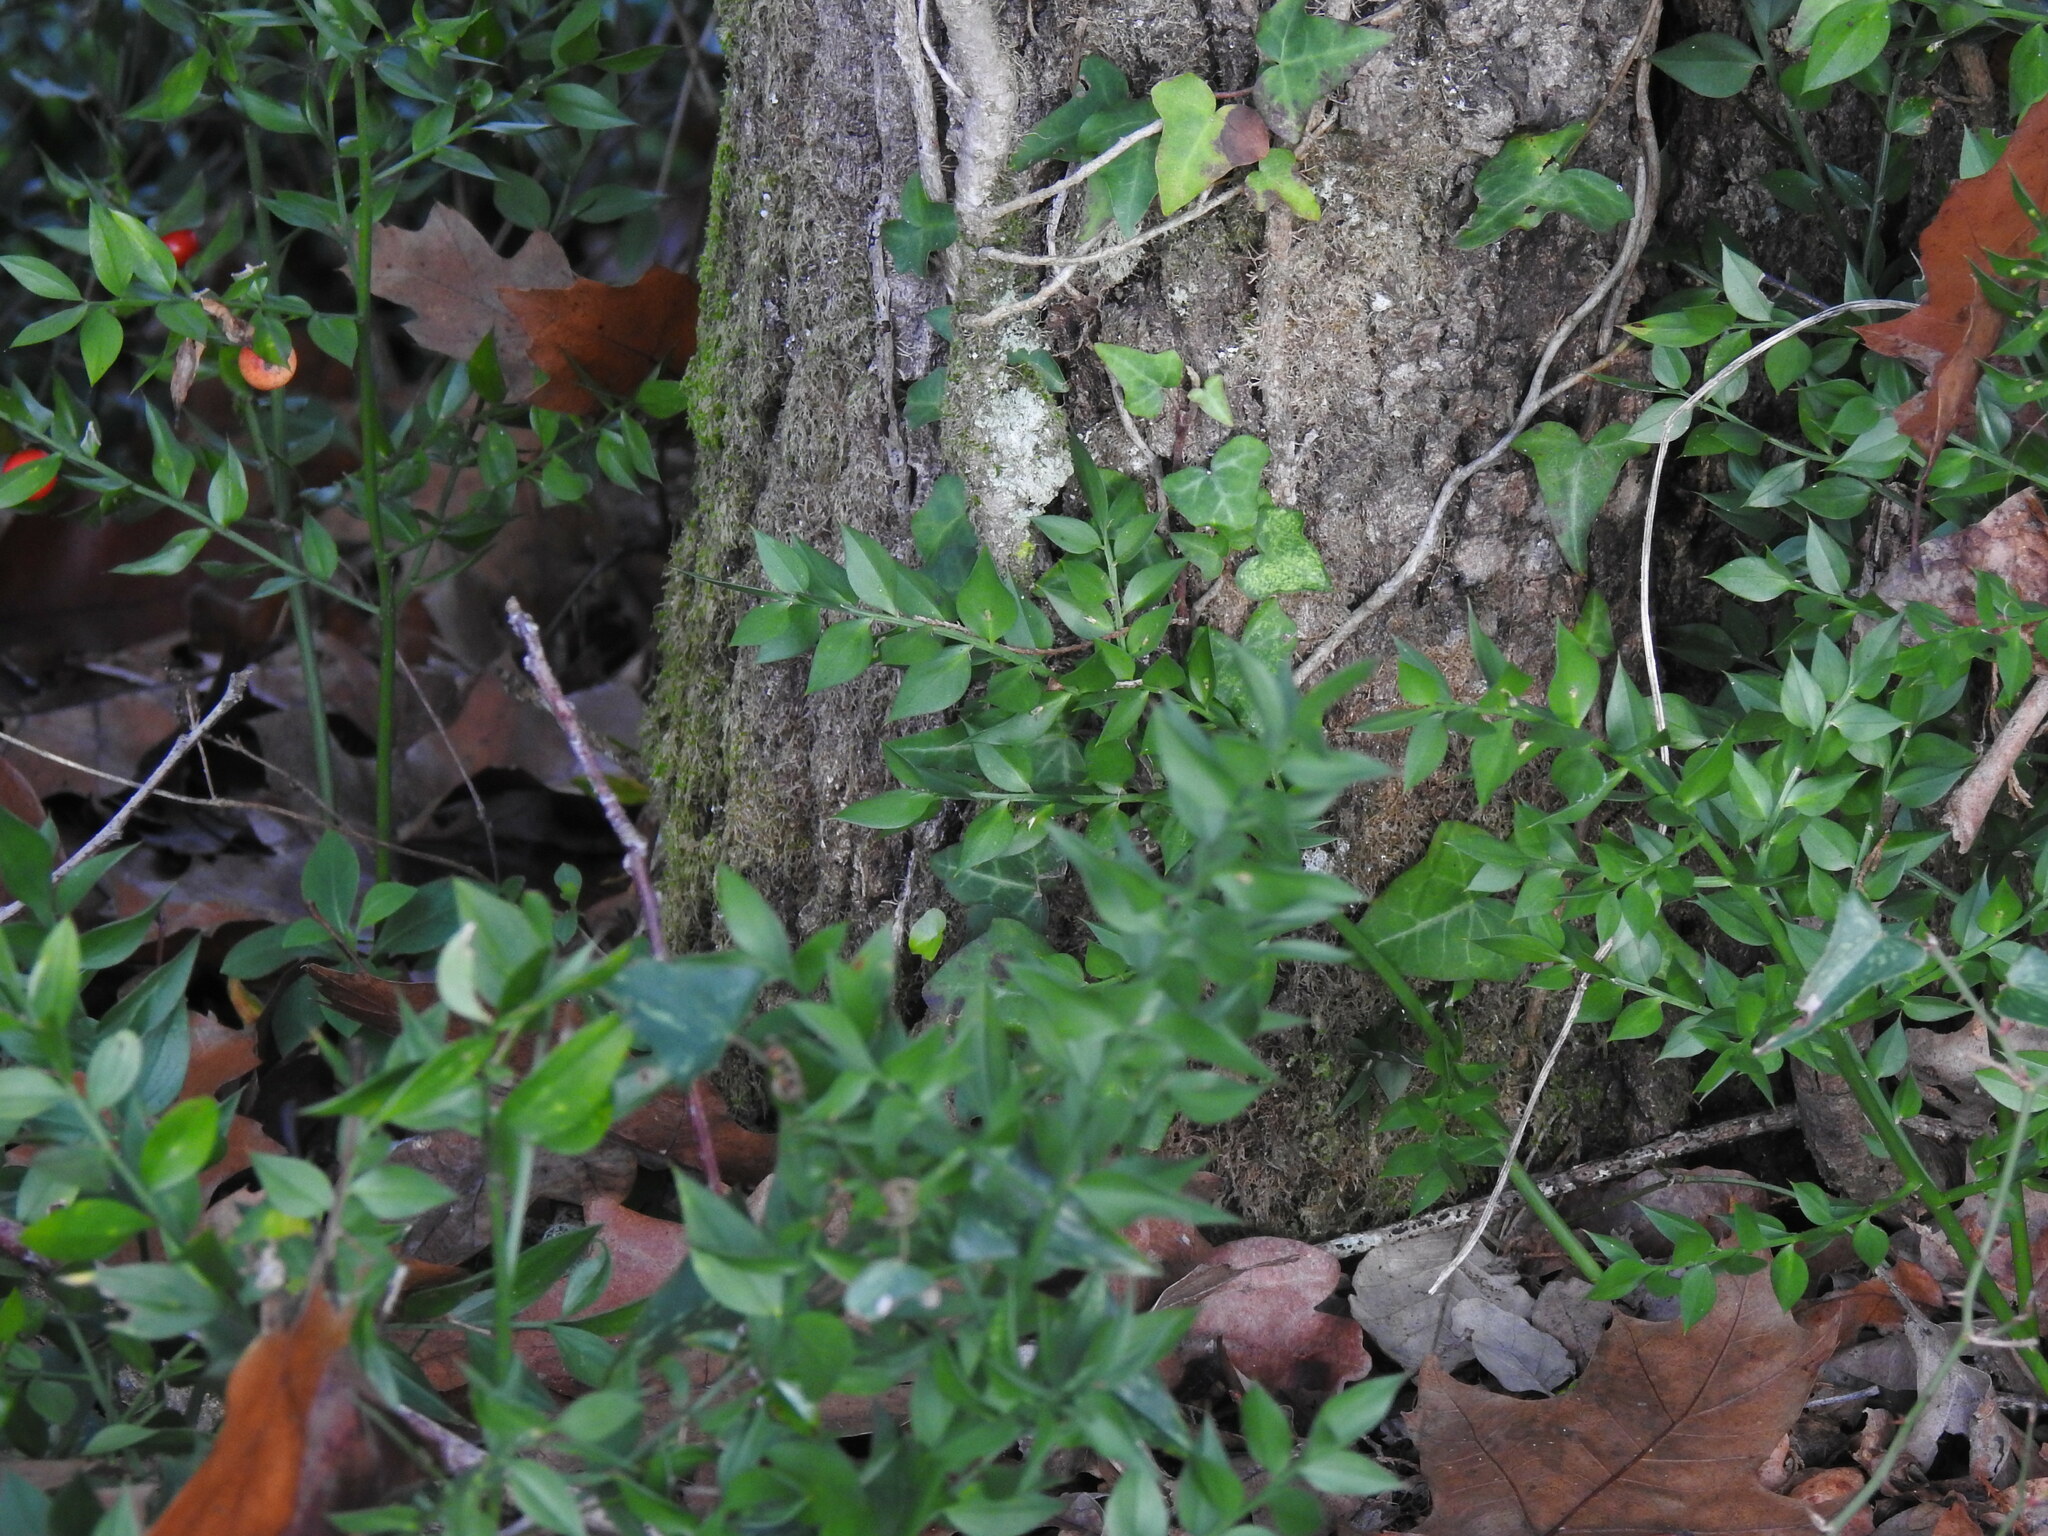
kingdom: Plantae
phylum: Tracheophyta
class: Liliopsida
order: Asparagales
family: Asparagaceae
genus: Ruscus
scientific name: Ruscus aculeatus
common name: Butcher's-broom
